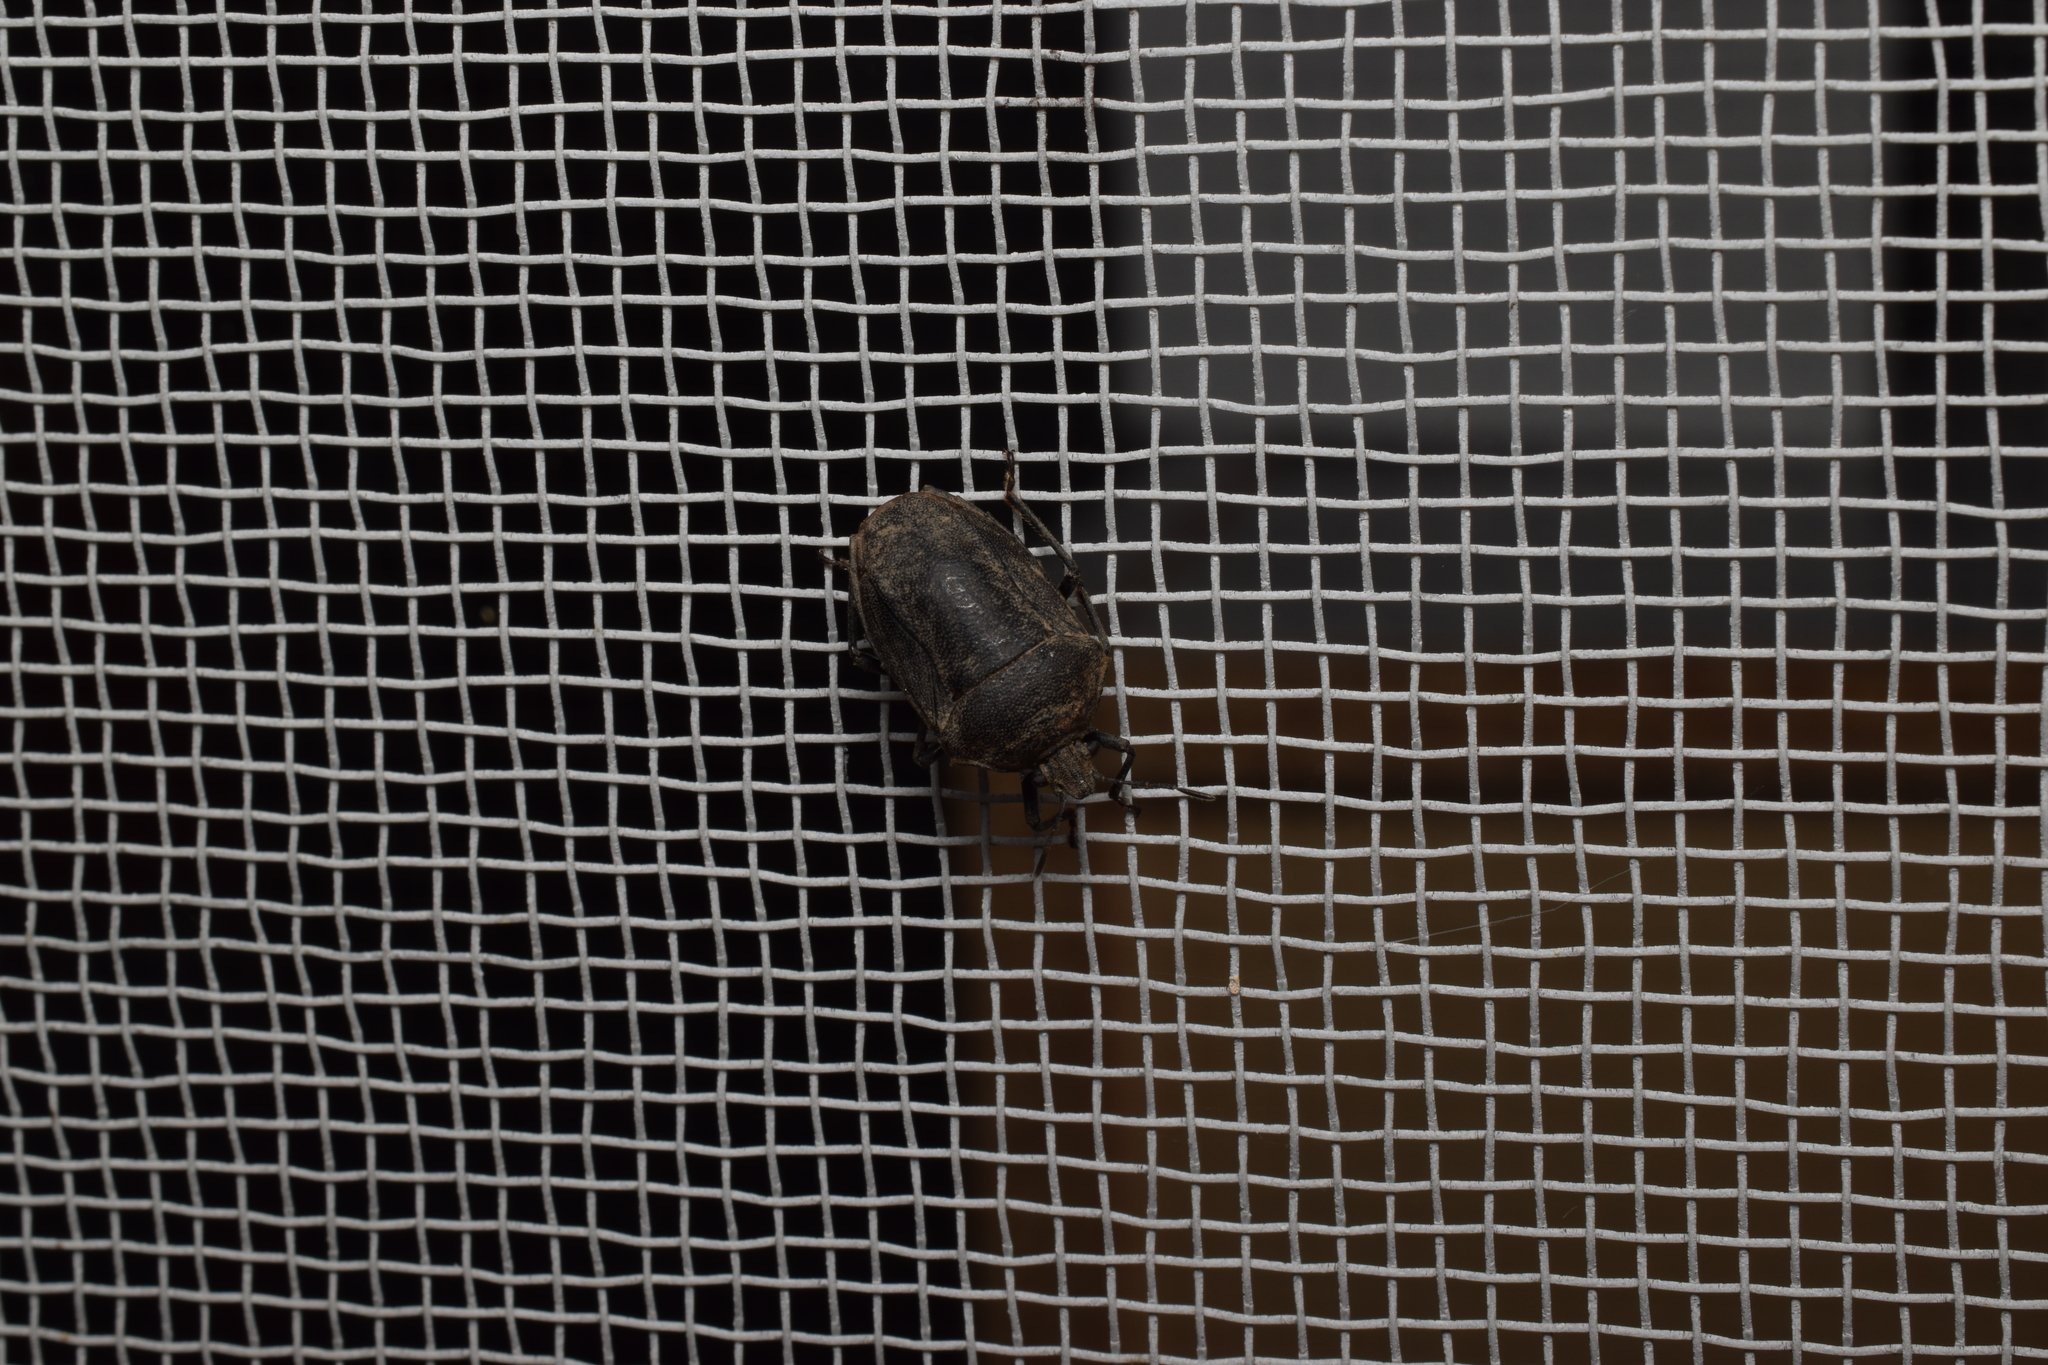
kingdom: Animalia
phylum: Arthropoda
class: Insecta
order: Hemiptera
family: Pentatomidae
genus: Scotinophara
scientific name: Scotinophara lurida
